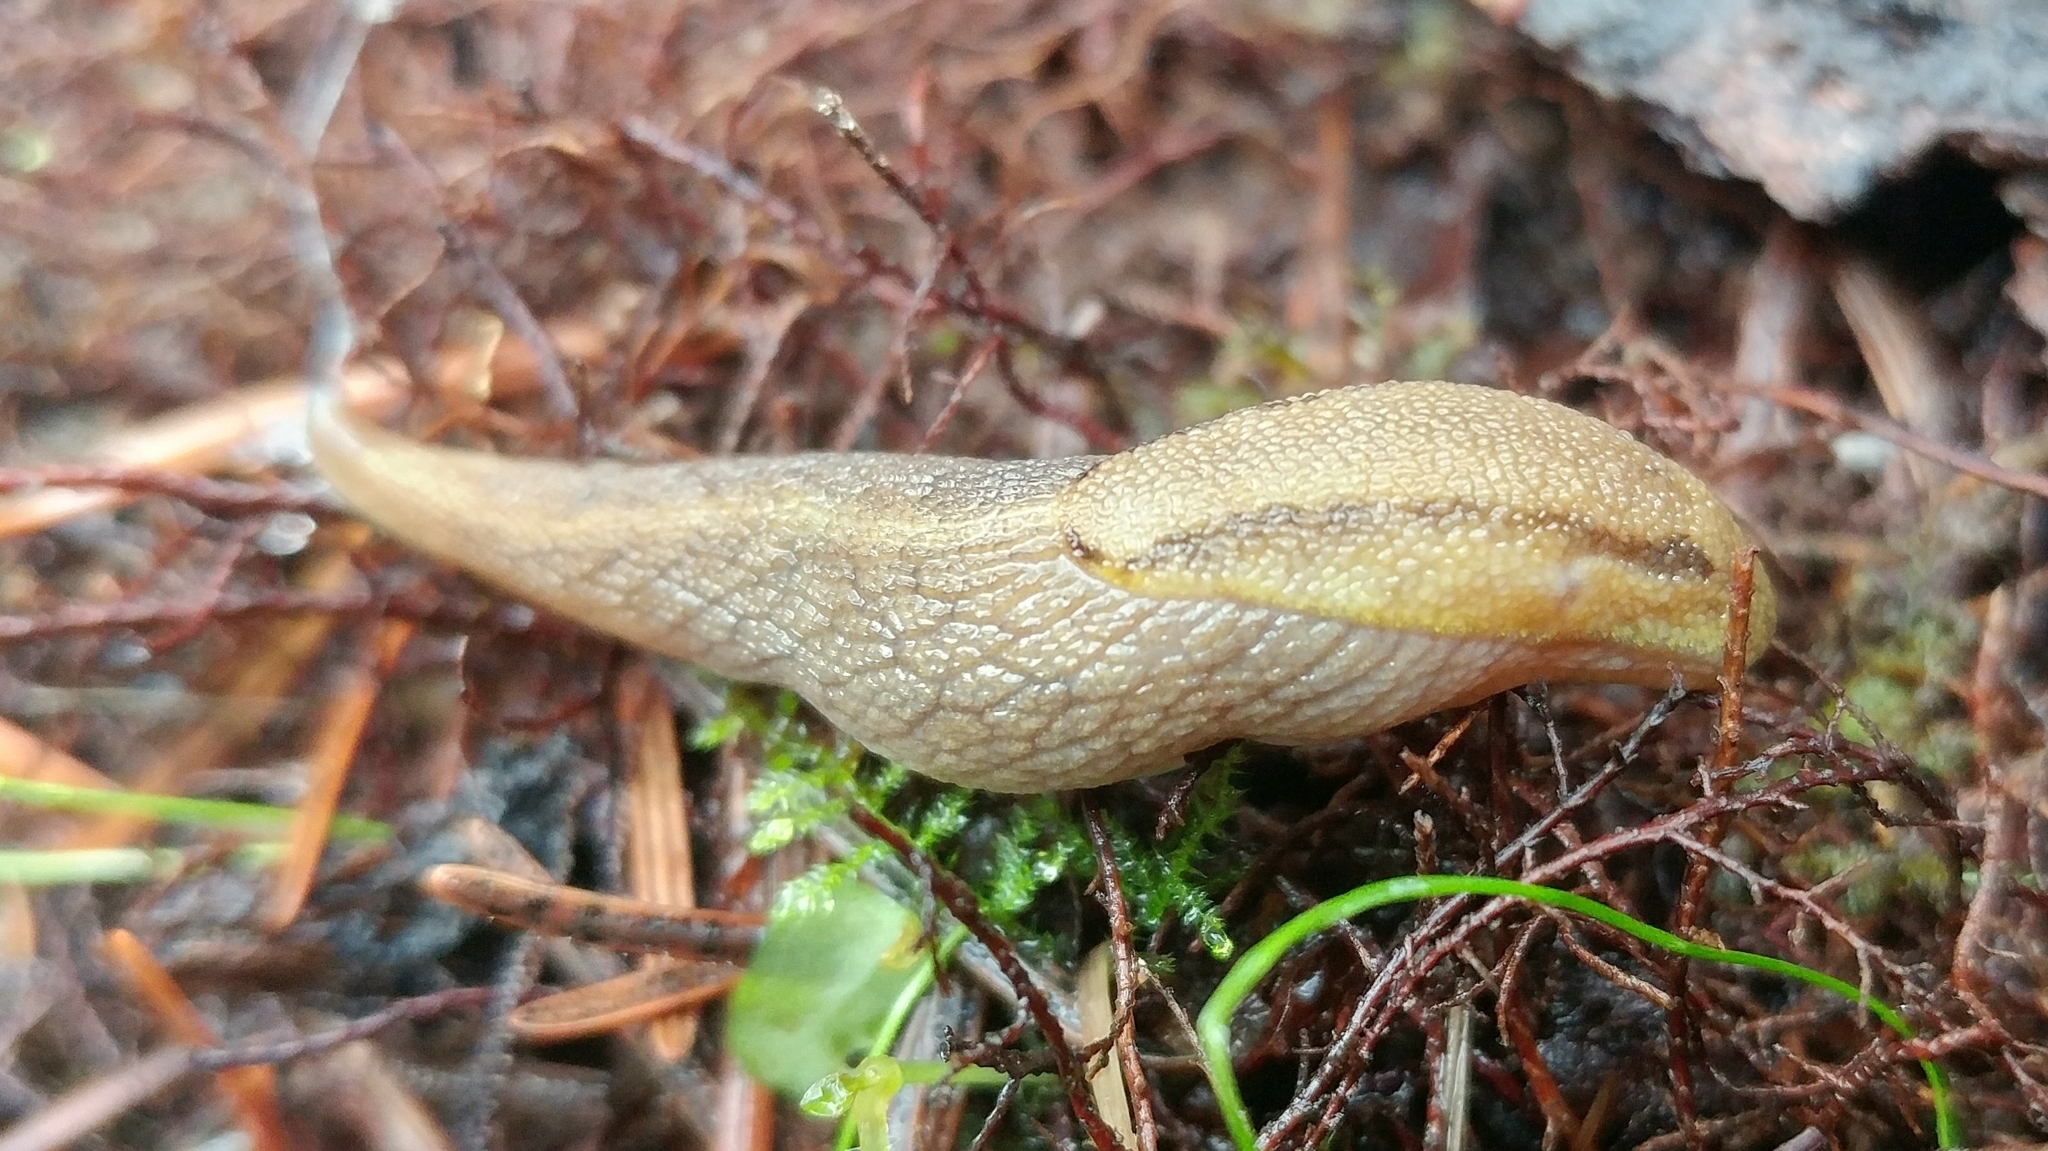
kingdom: Animalia
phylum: Mollusca
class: Gastropoda
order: Stylommatophora
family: Ariolimacidae
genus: Prophysaon
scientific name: Prophysaon foliolatum
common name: Yellow-bordered taildropper
